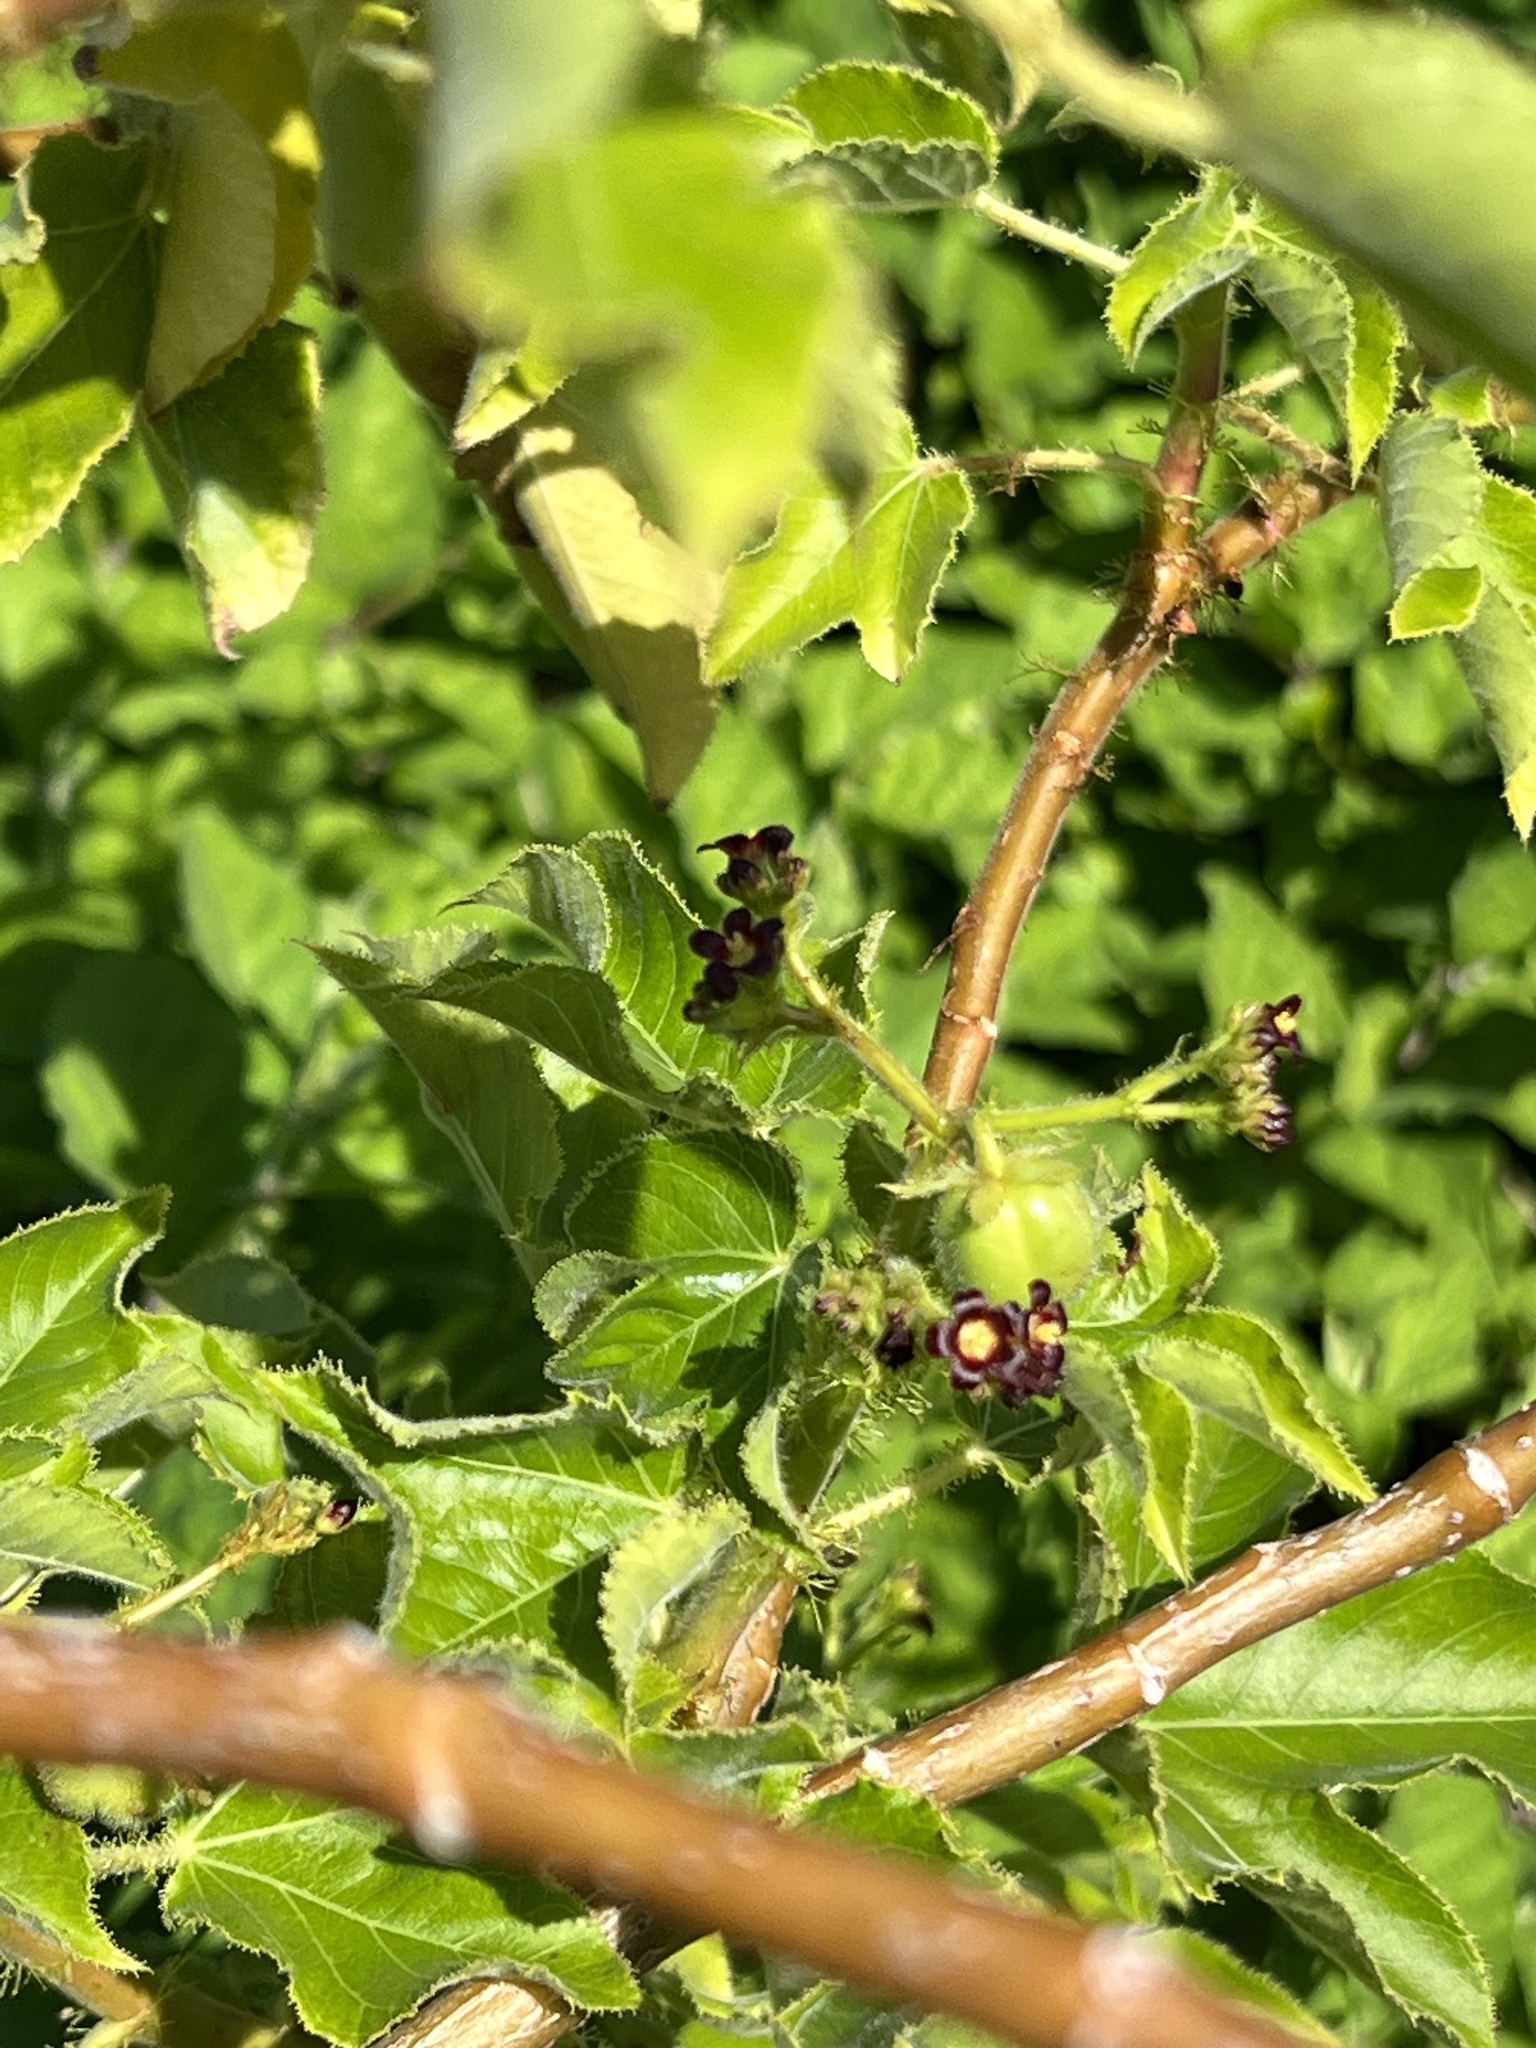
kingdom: Plantae
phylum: Tracheophyta
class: Magnoliopsida
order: Malpighiales
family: Euphorbiaceae
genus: Jatropha
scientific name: Jatropha gossypiifolia
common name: Bellyache bush
